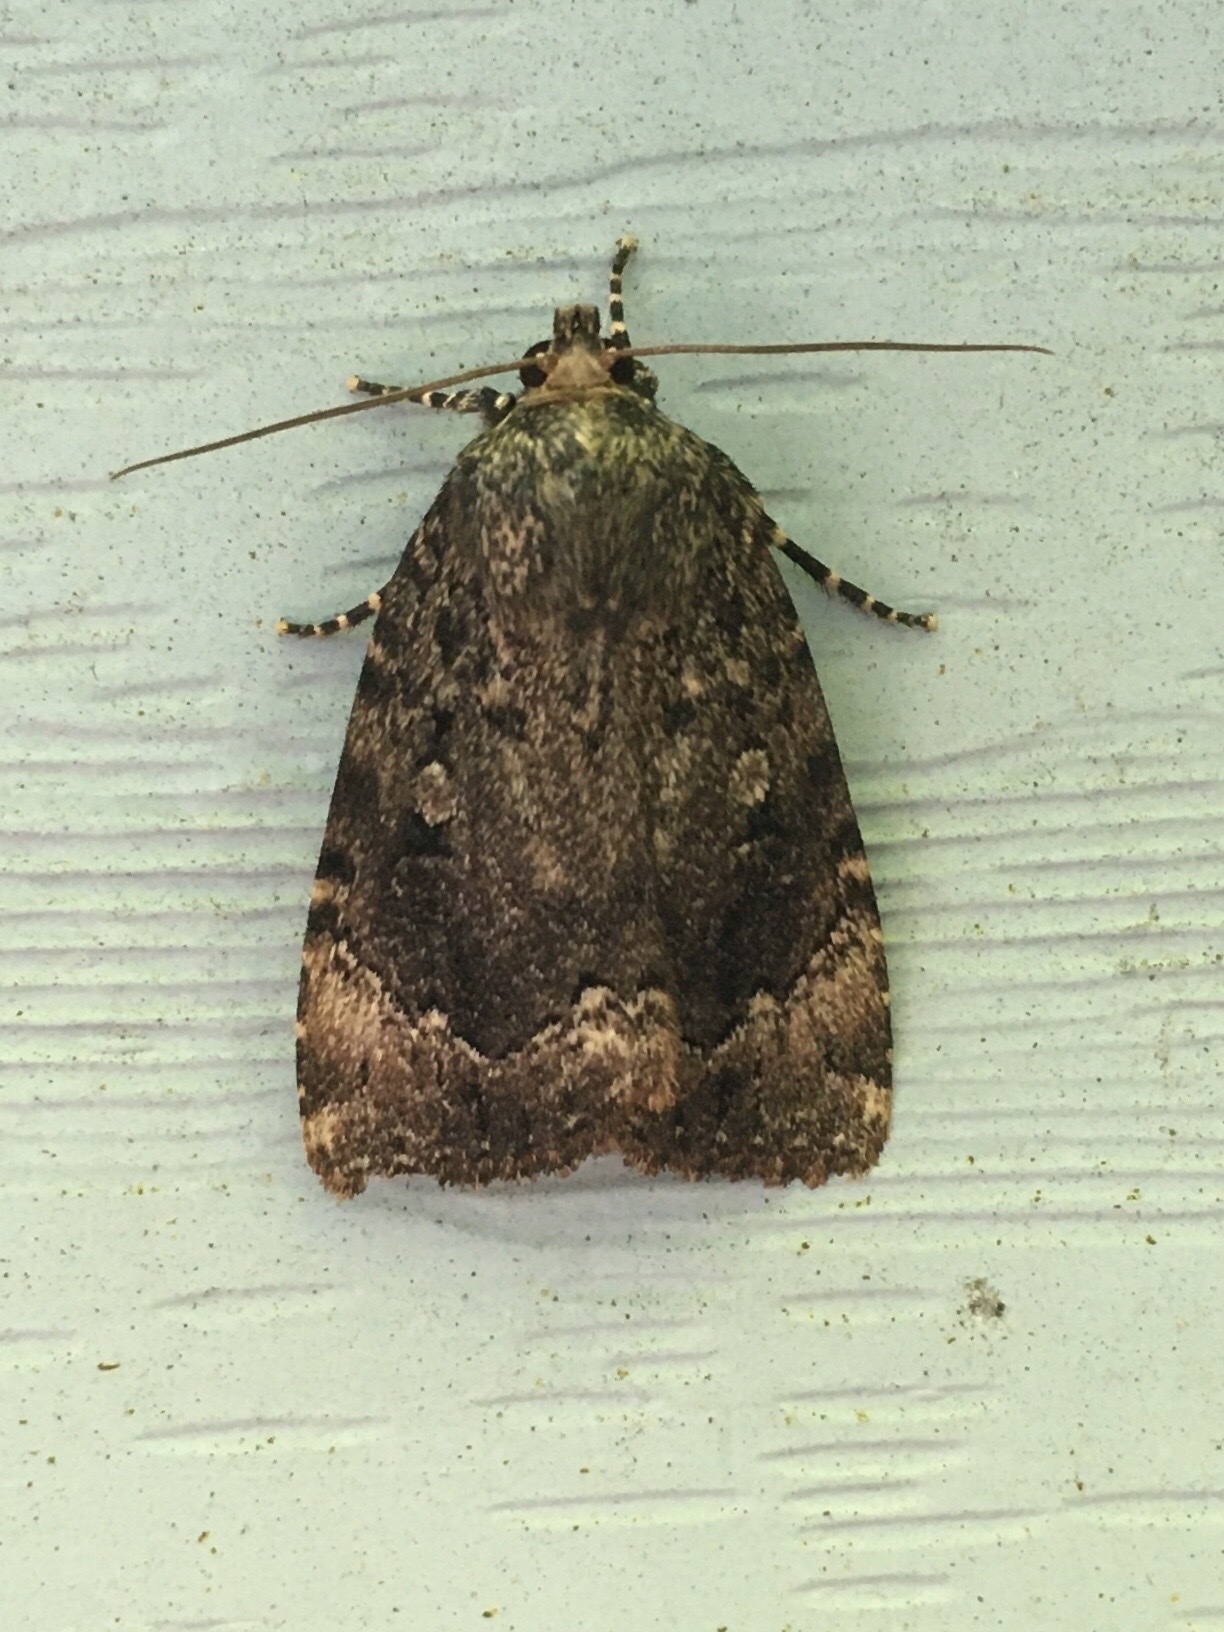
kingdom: Animalia
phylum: Arthropoda
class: Insecta
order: Lepidoptera
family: Noctuidae
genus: Amphipyra
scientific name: Amphipyra pyramidoides
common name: American copper underwing
